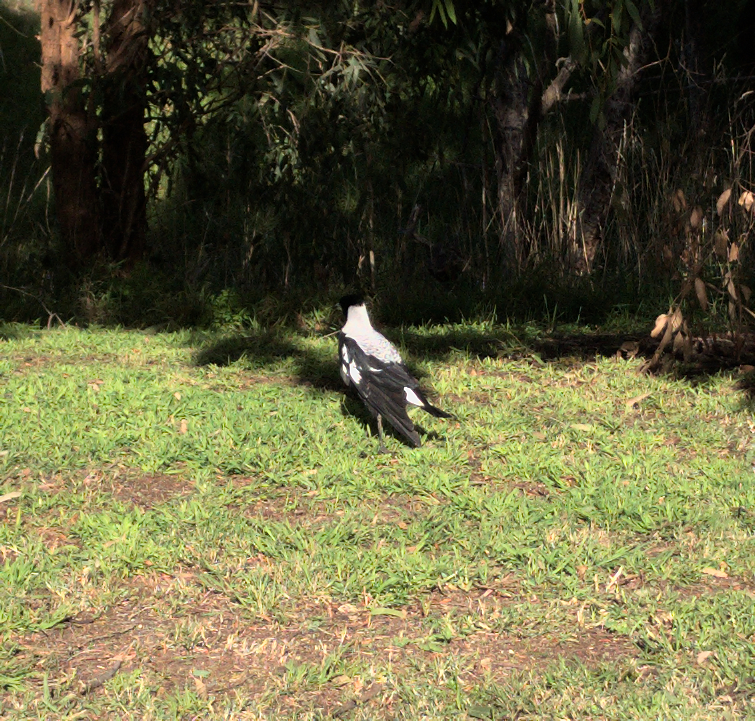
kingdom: Animalia
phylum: Chordata
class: Aves
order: Passeriformes
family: Cracticidae
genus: Gymnorhina
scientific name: Gymnorhina tibicen
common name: Australian magpie
